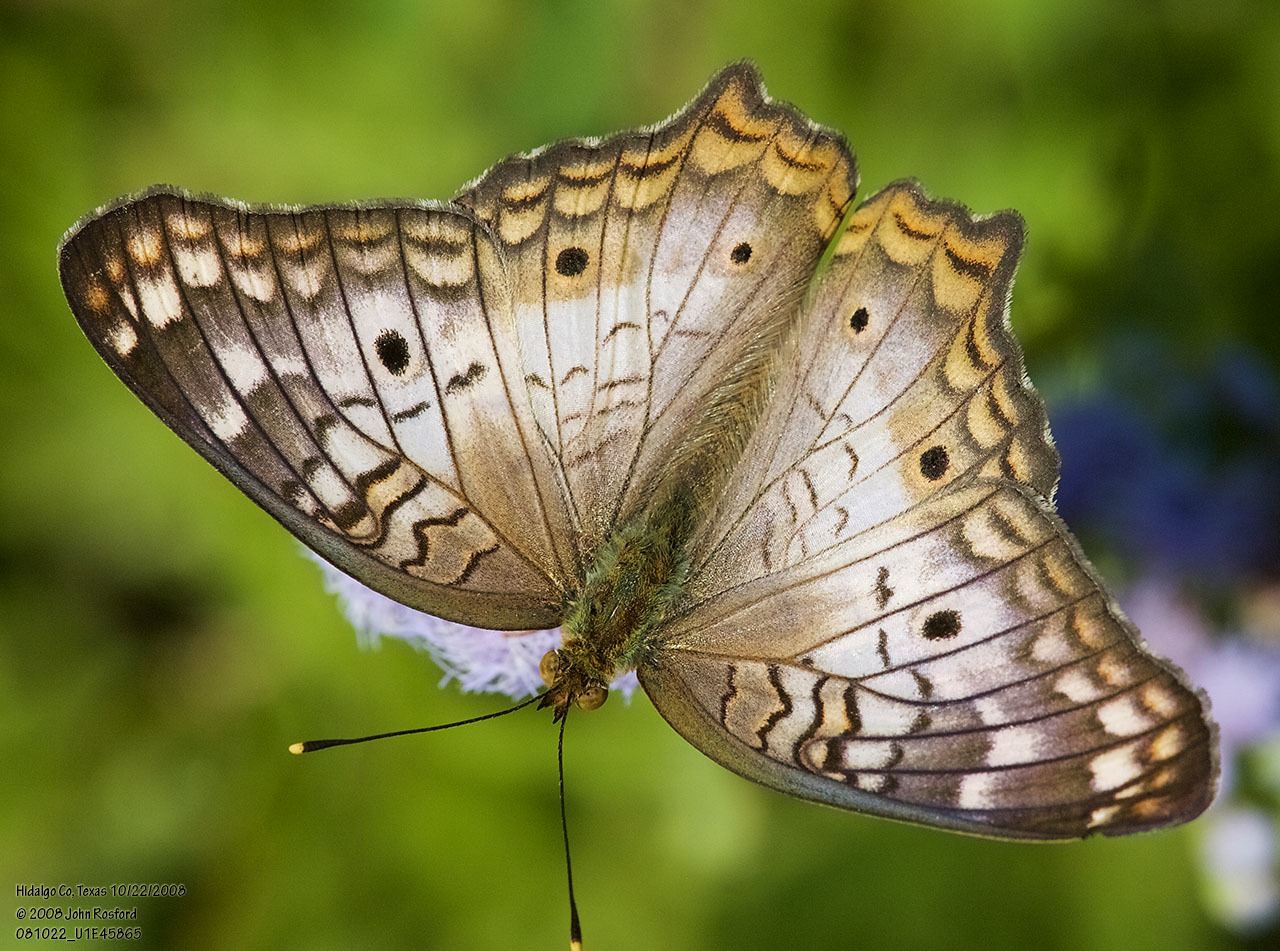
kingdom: Animalia
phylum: Arthropoda
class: Insecta
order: Lepidoptera
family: Nymphalidae
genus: Anartia
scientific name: Anartia jatrophae
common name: White peacock
